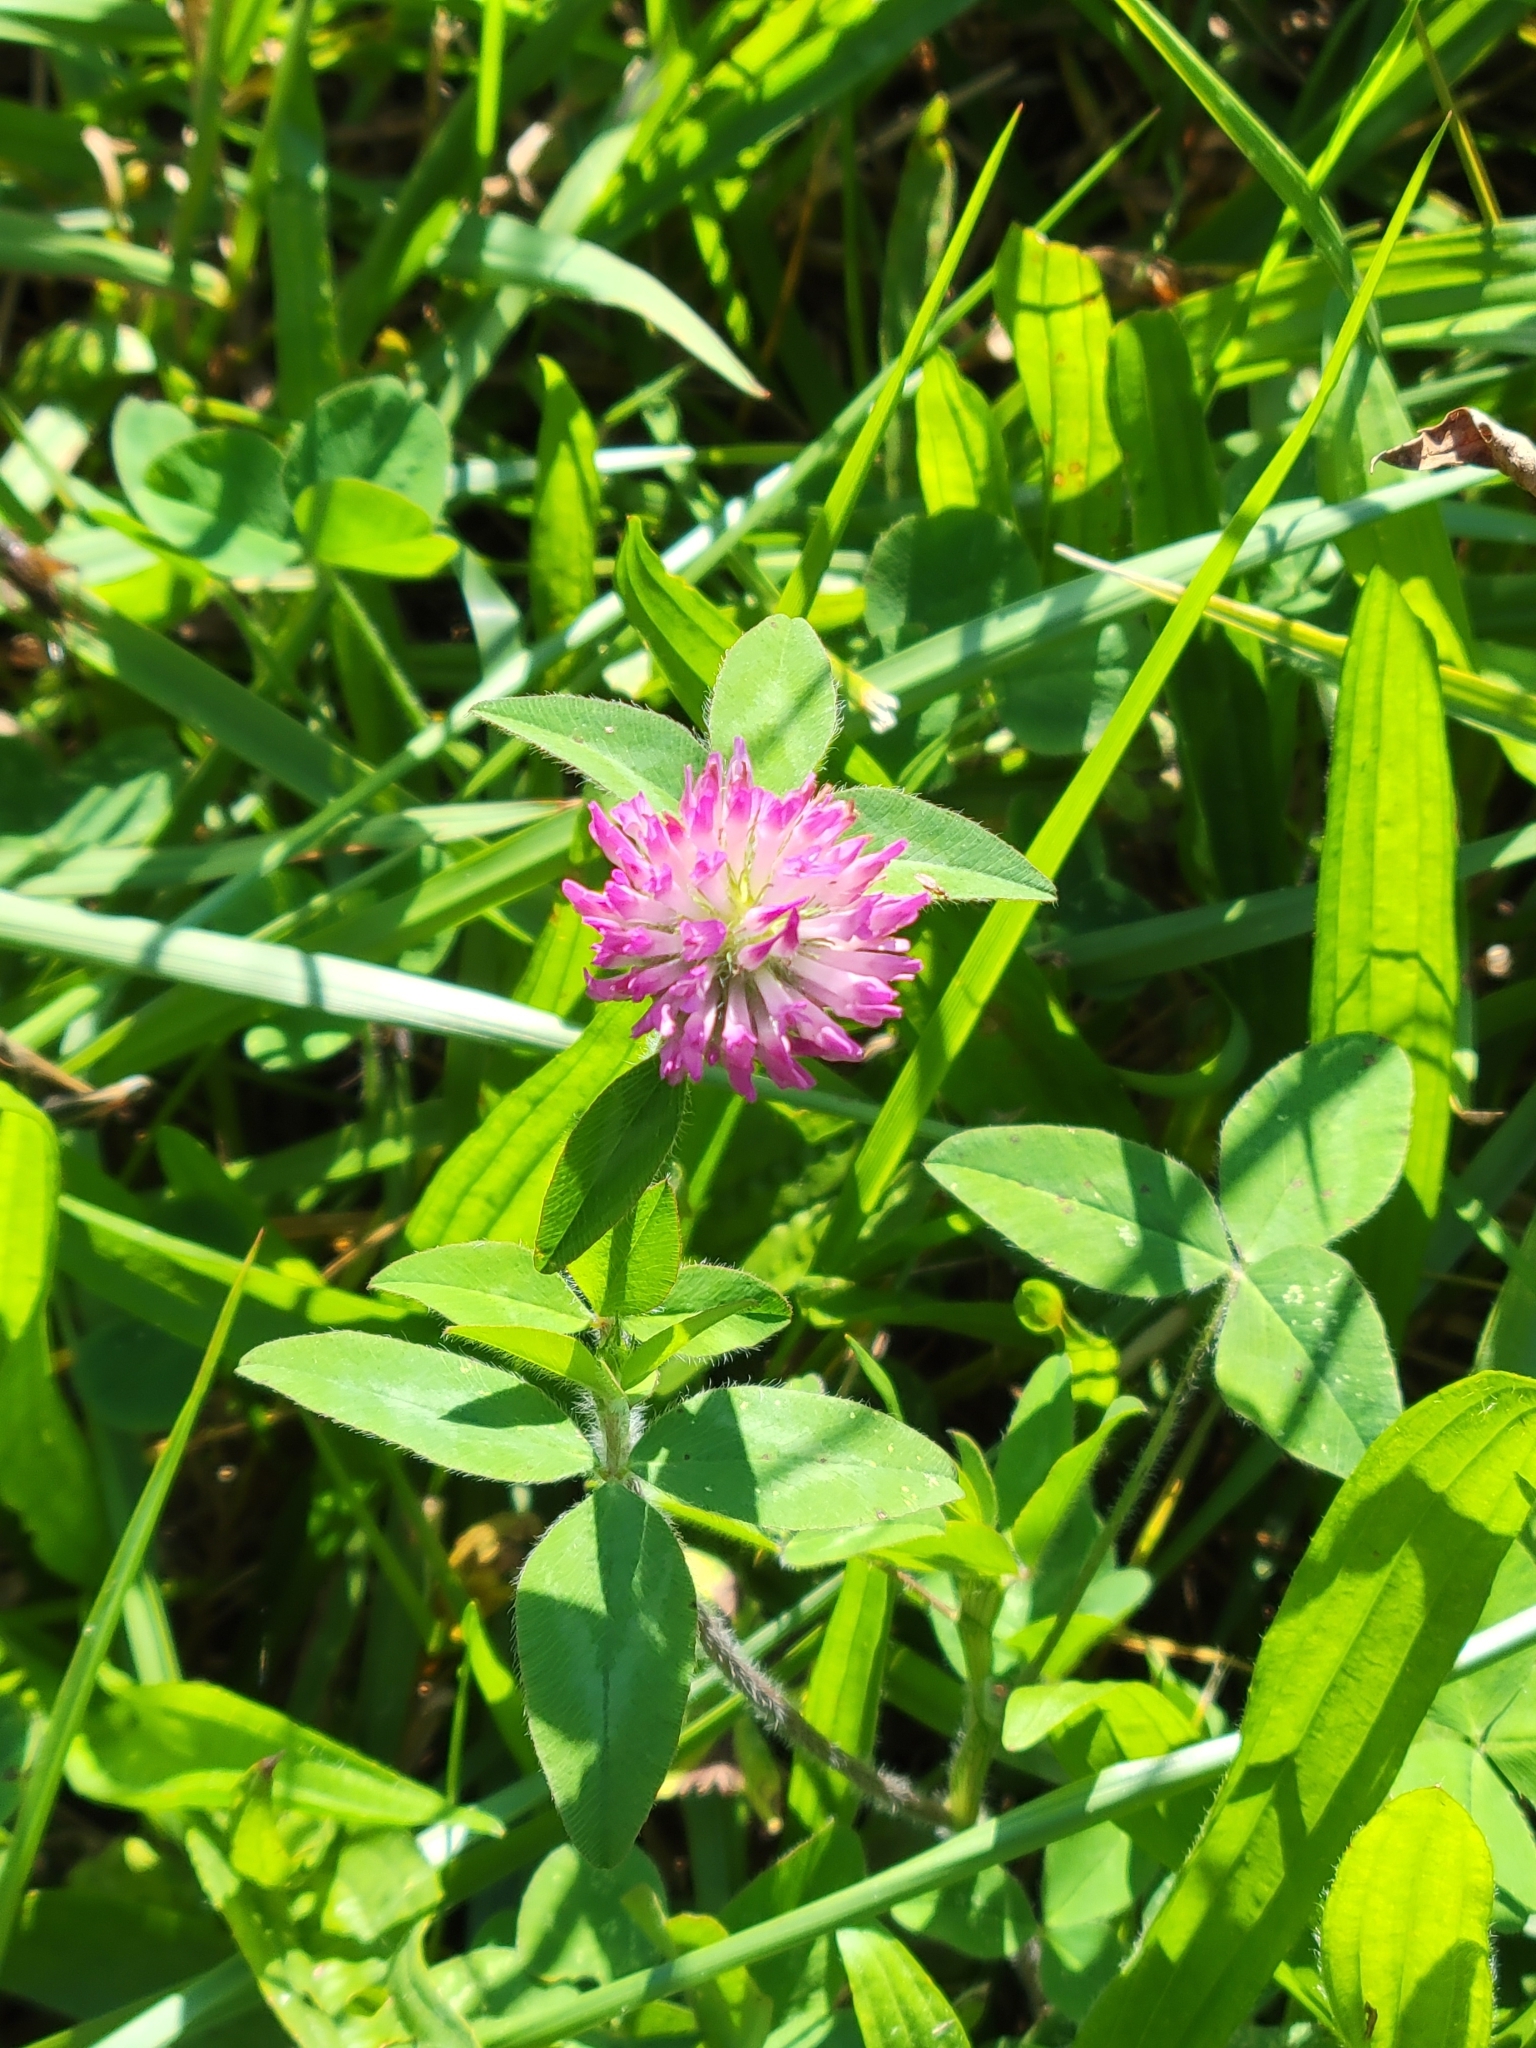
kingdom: Plantae
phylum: Tracheophyta
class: Magnoliopsida
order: Fabales
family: Fabaceae
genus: Trifolium
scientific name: Trifolium pratense
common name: Red clover
